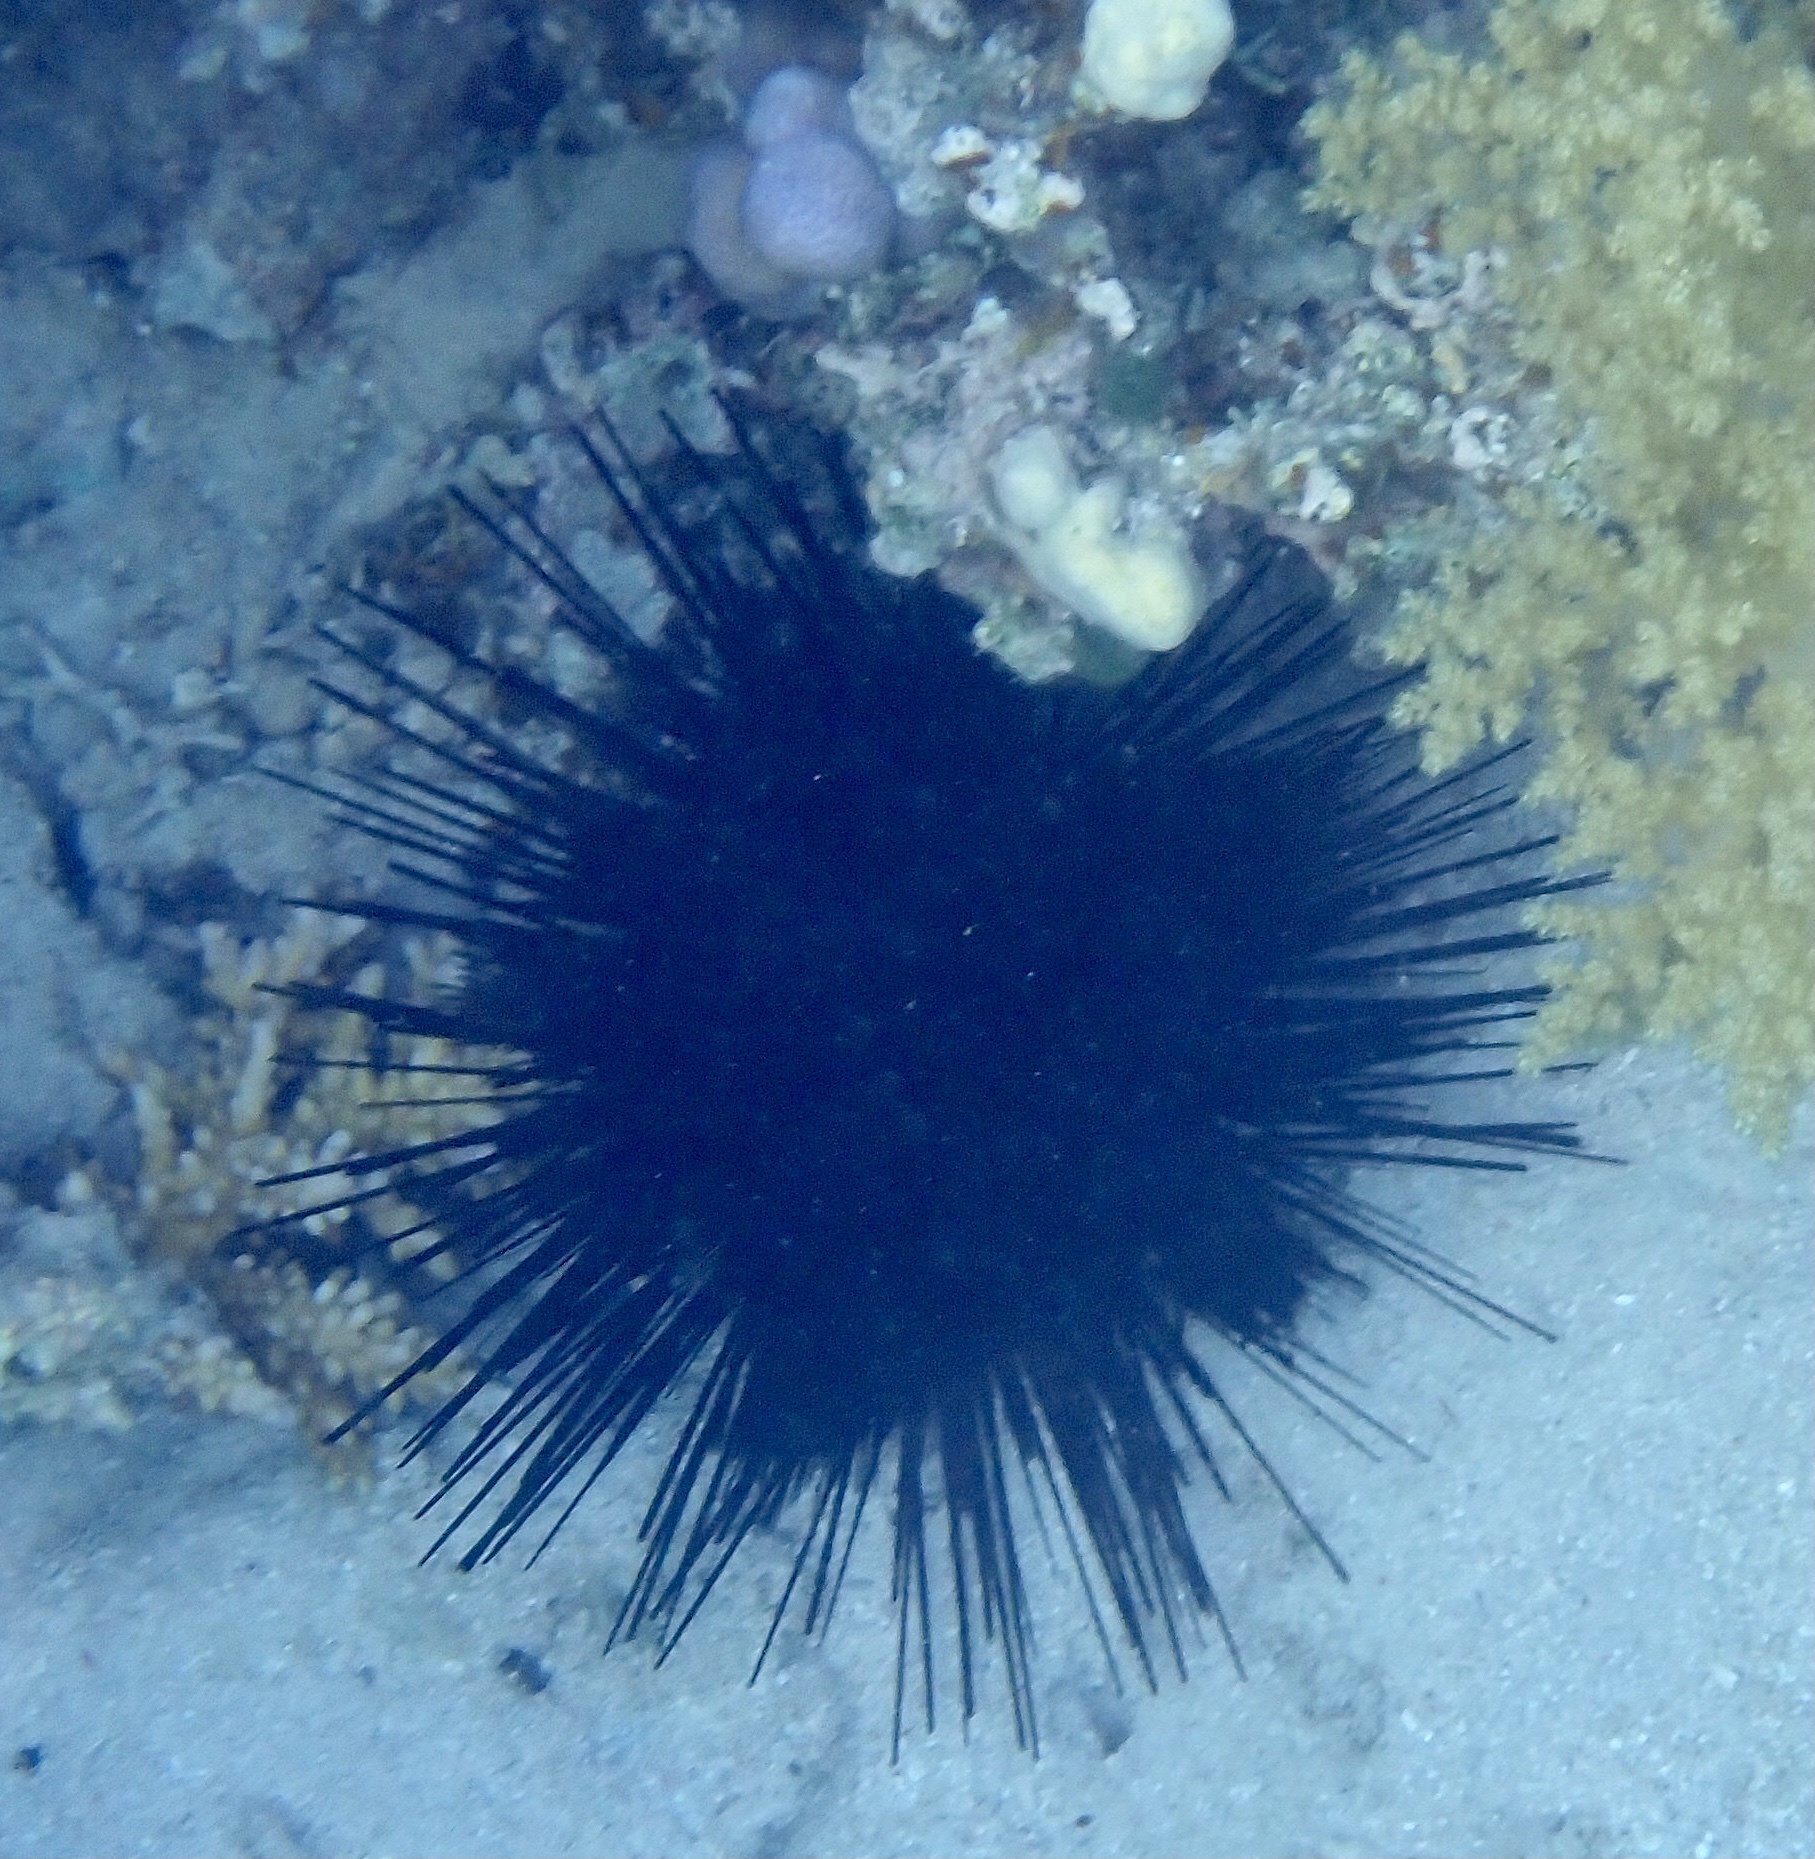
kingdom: Animalia
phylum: Echinodermata
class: Echinoidea
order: Diadematoida
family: Diadematidae
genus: Echinothrix
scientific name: Echinothrix calamaris
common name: Banded sea urchin
